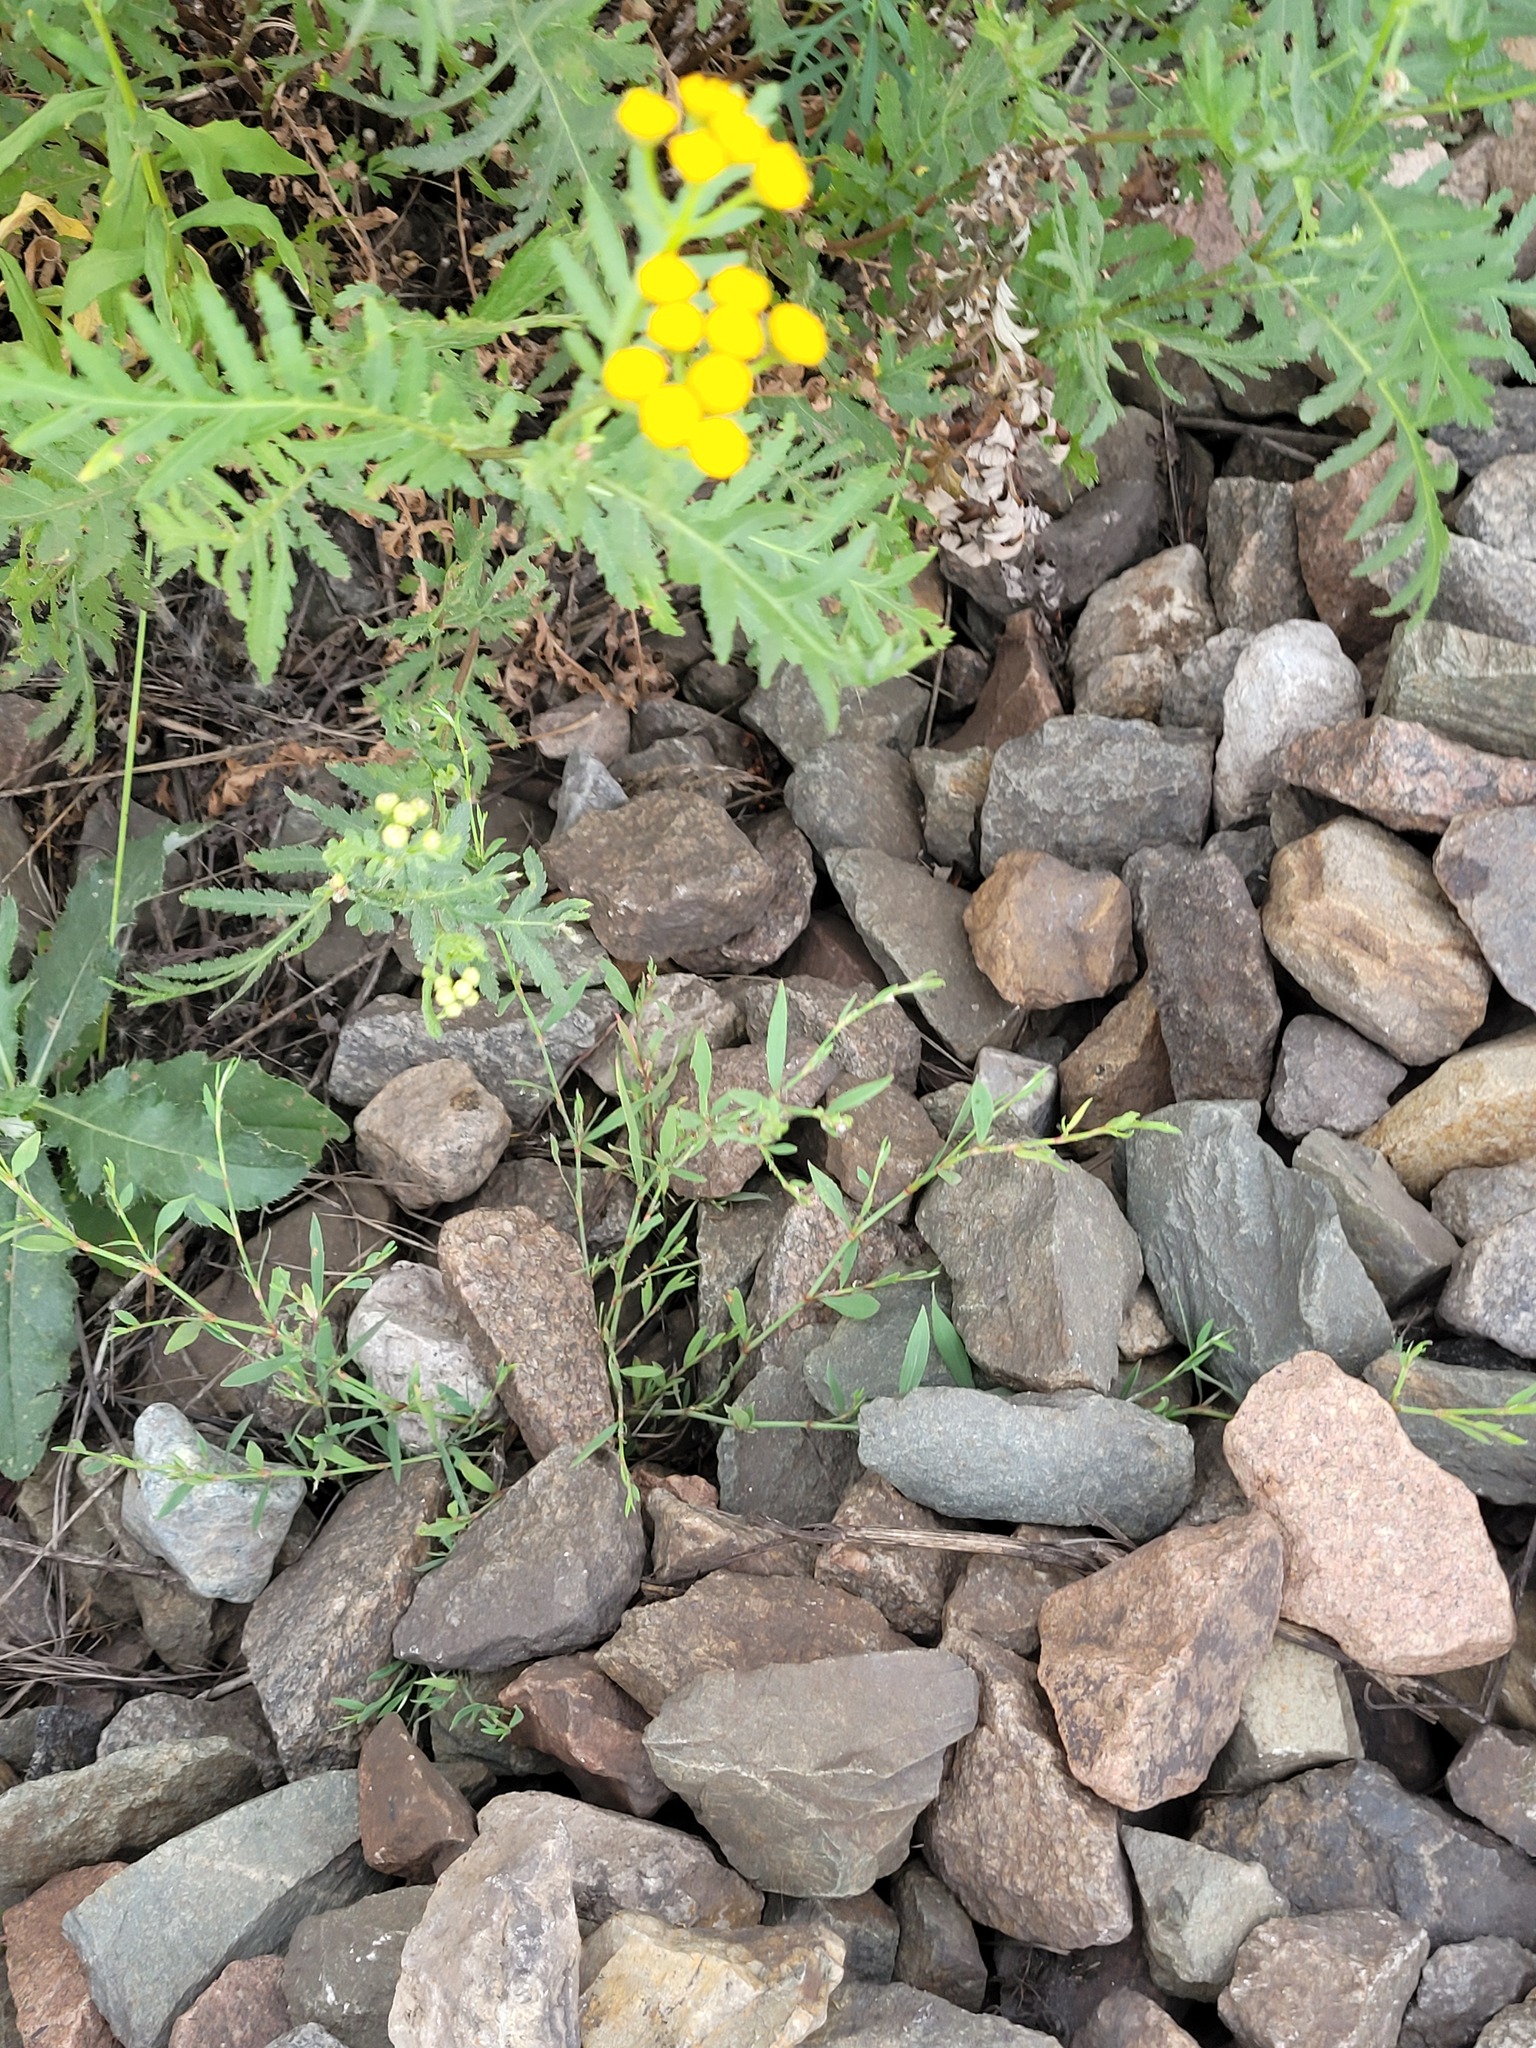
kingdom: Plantae
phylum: Tracheophyta
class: Magnoliopsida
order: Caryophyllales
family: Polygonaceae
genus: Polygonum
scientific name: Polygonum
